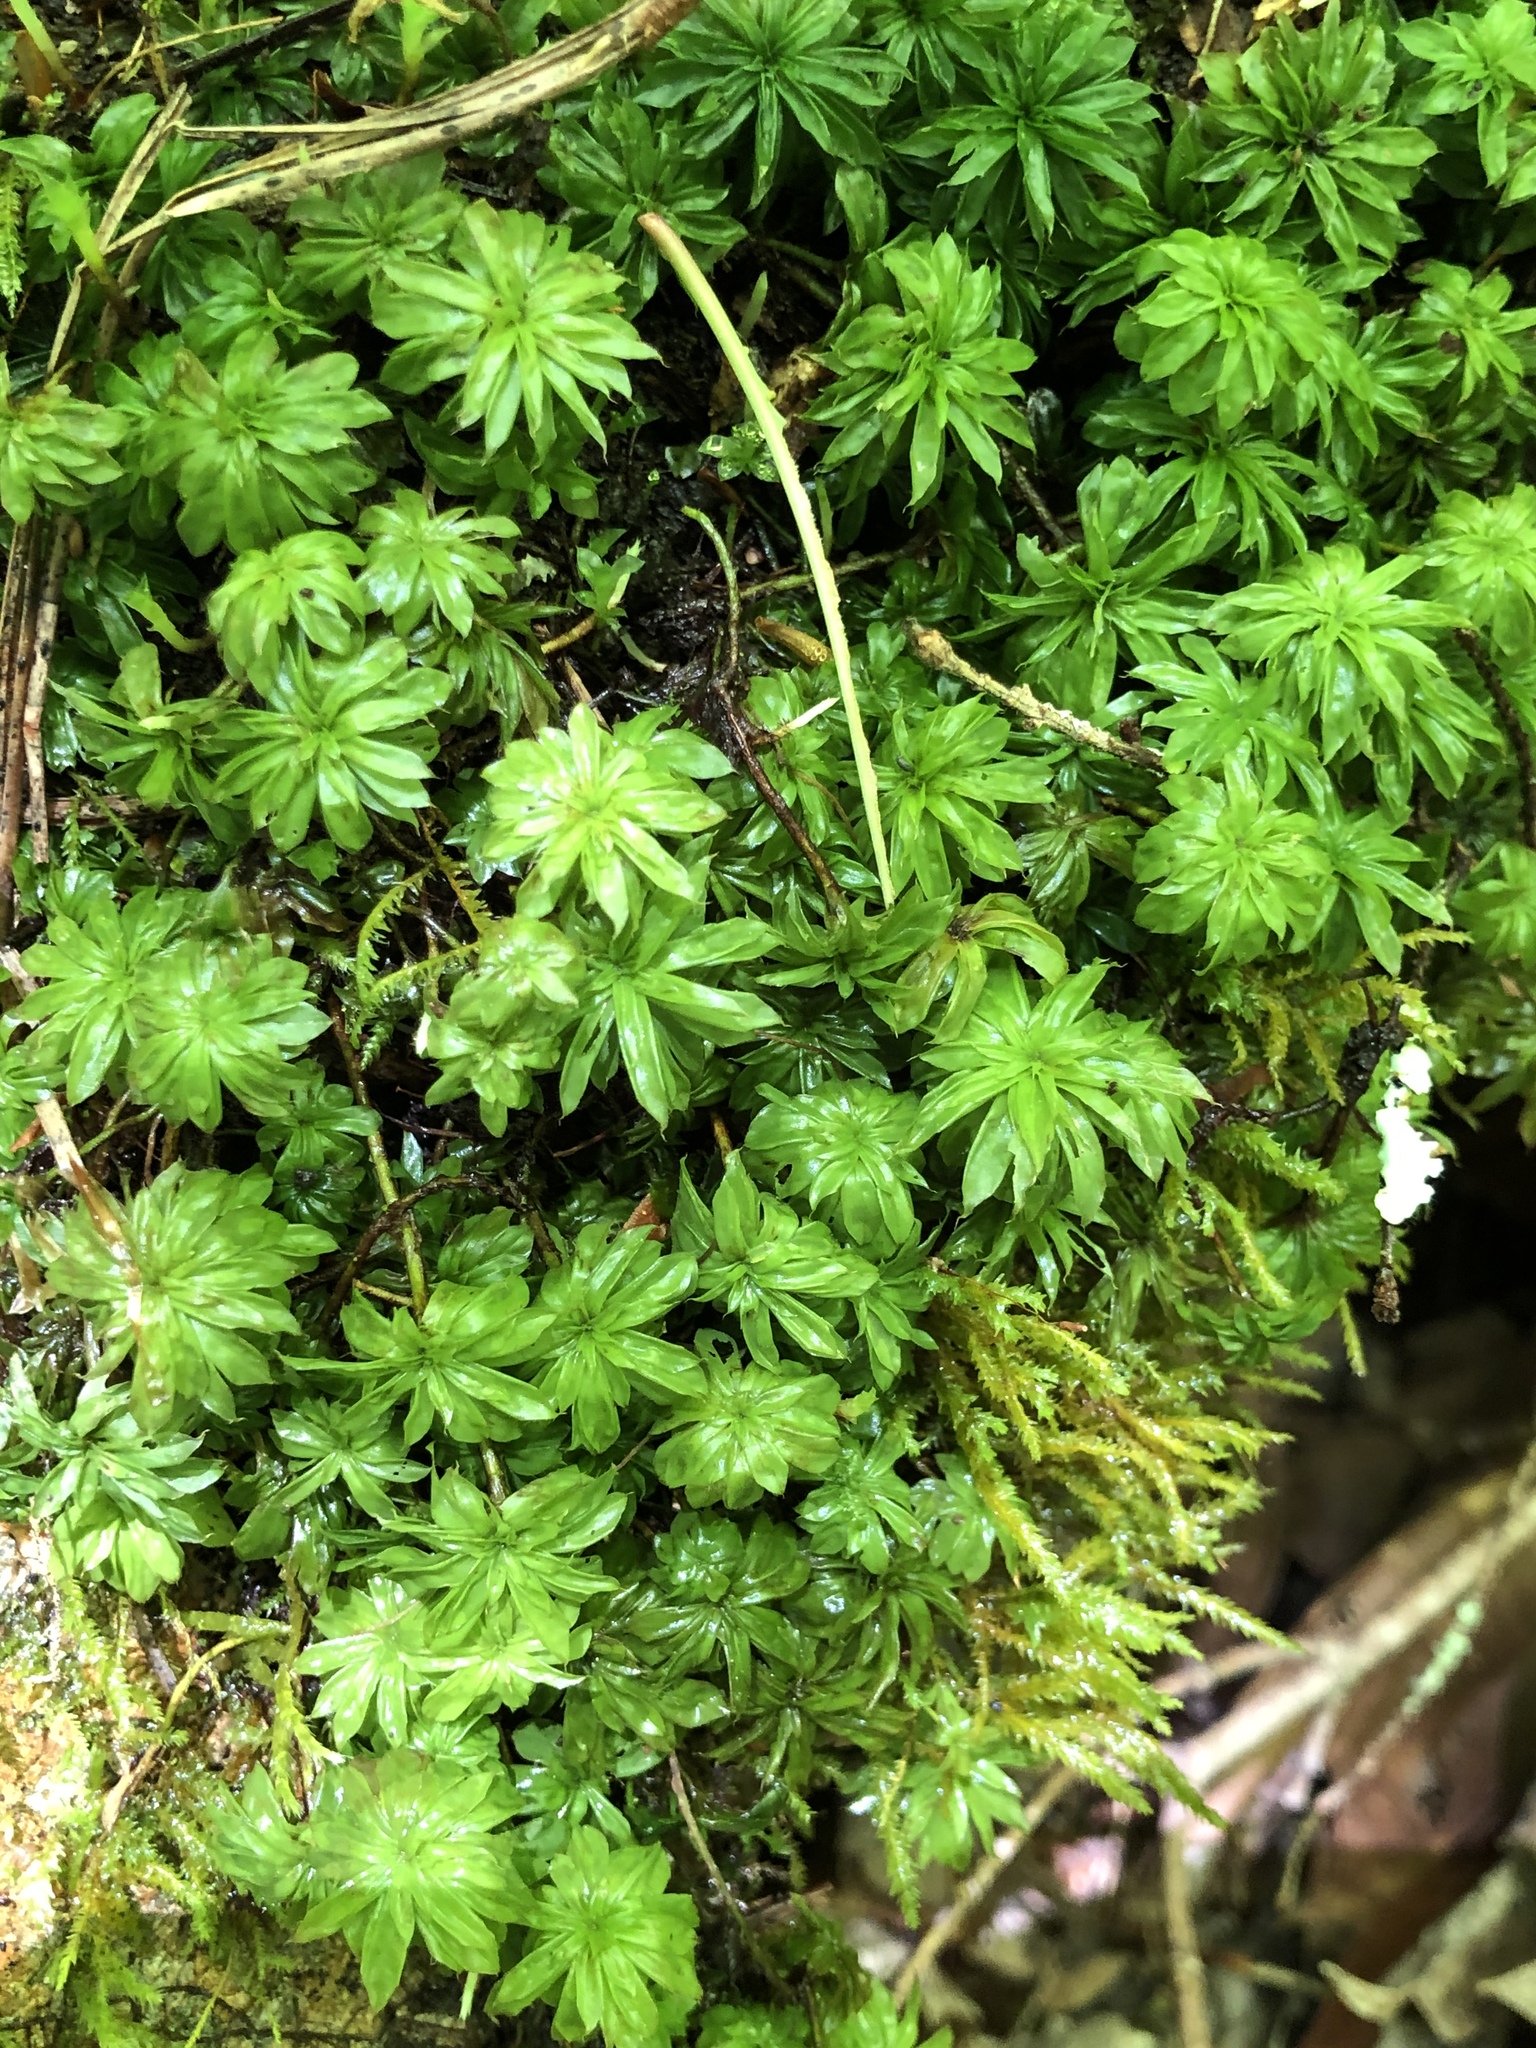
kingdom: Plantae
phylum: Bryophyta
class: Bryopsida
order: Bryales
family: Bryaceae
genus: Rhodobryum
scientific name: Rhodobryum ontariense
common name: Ontario rhodobryum moss
